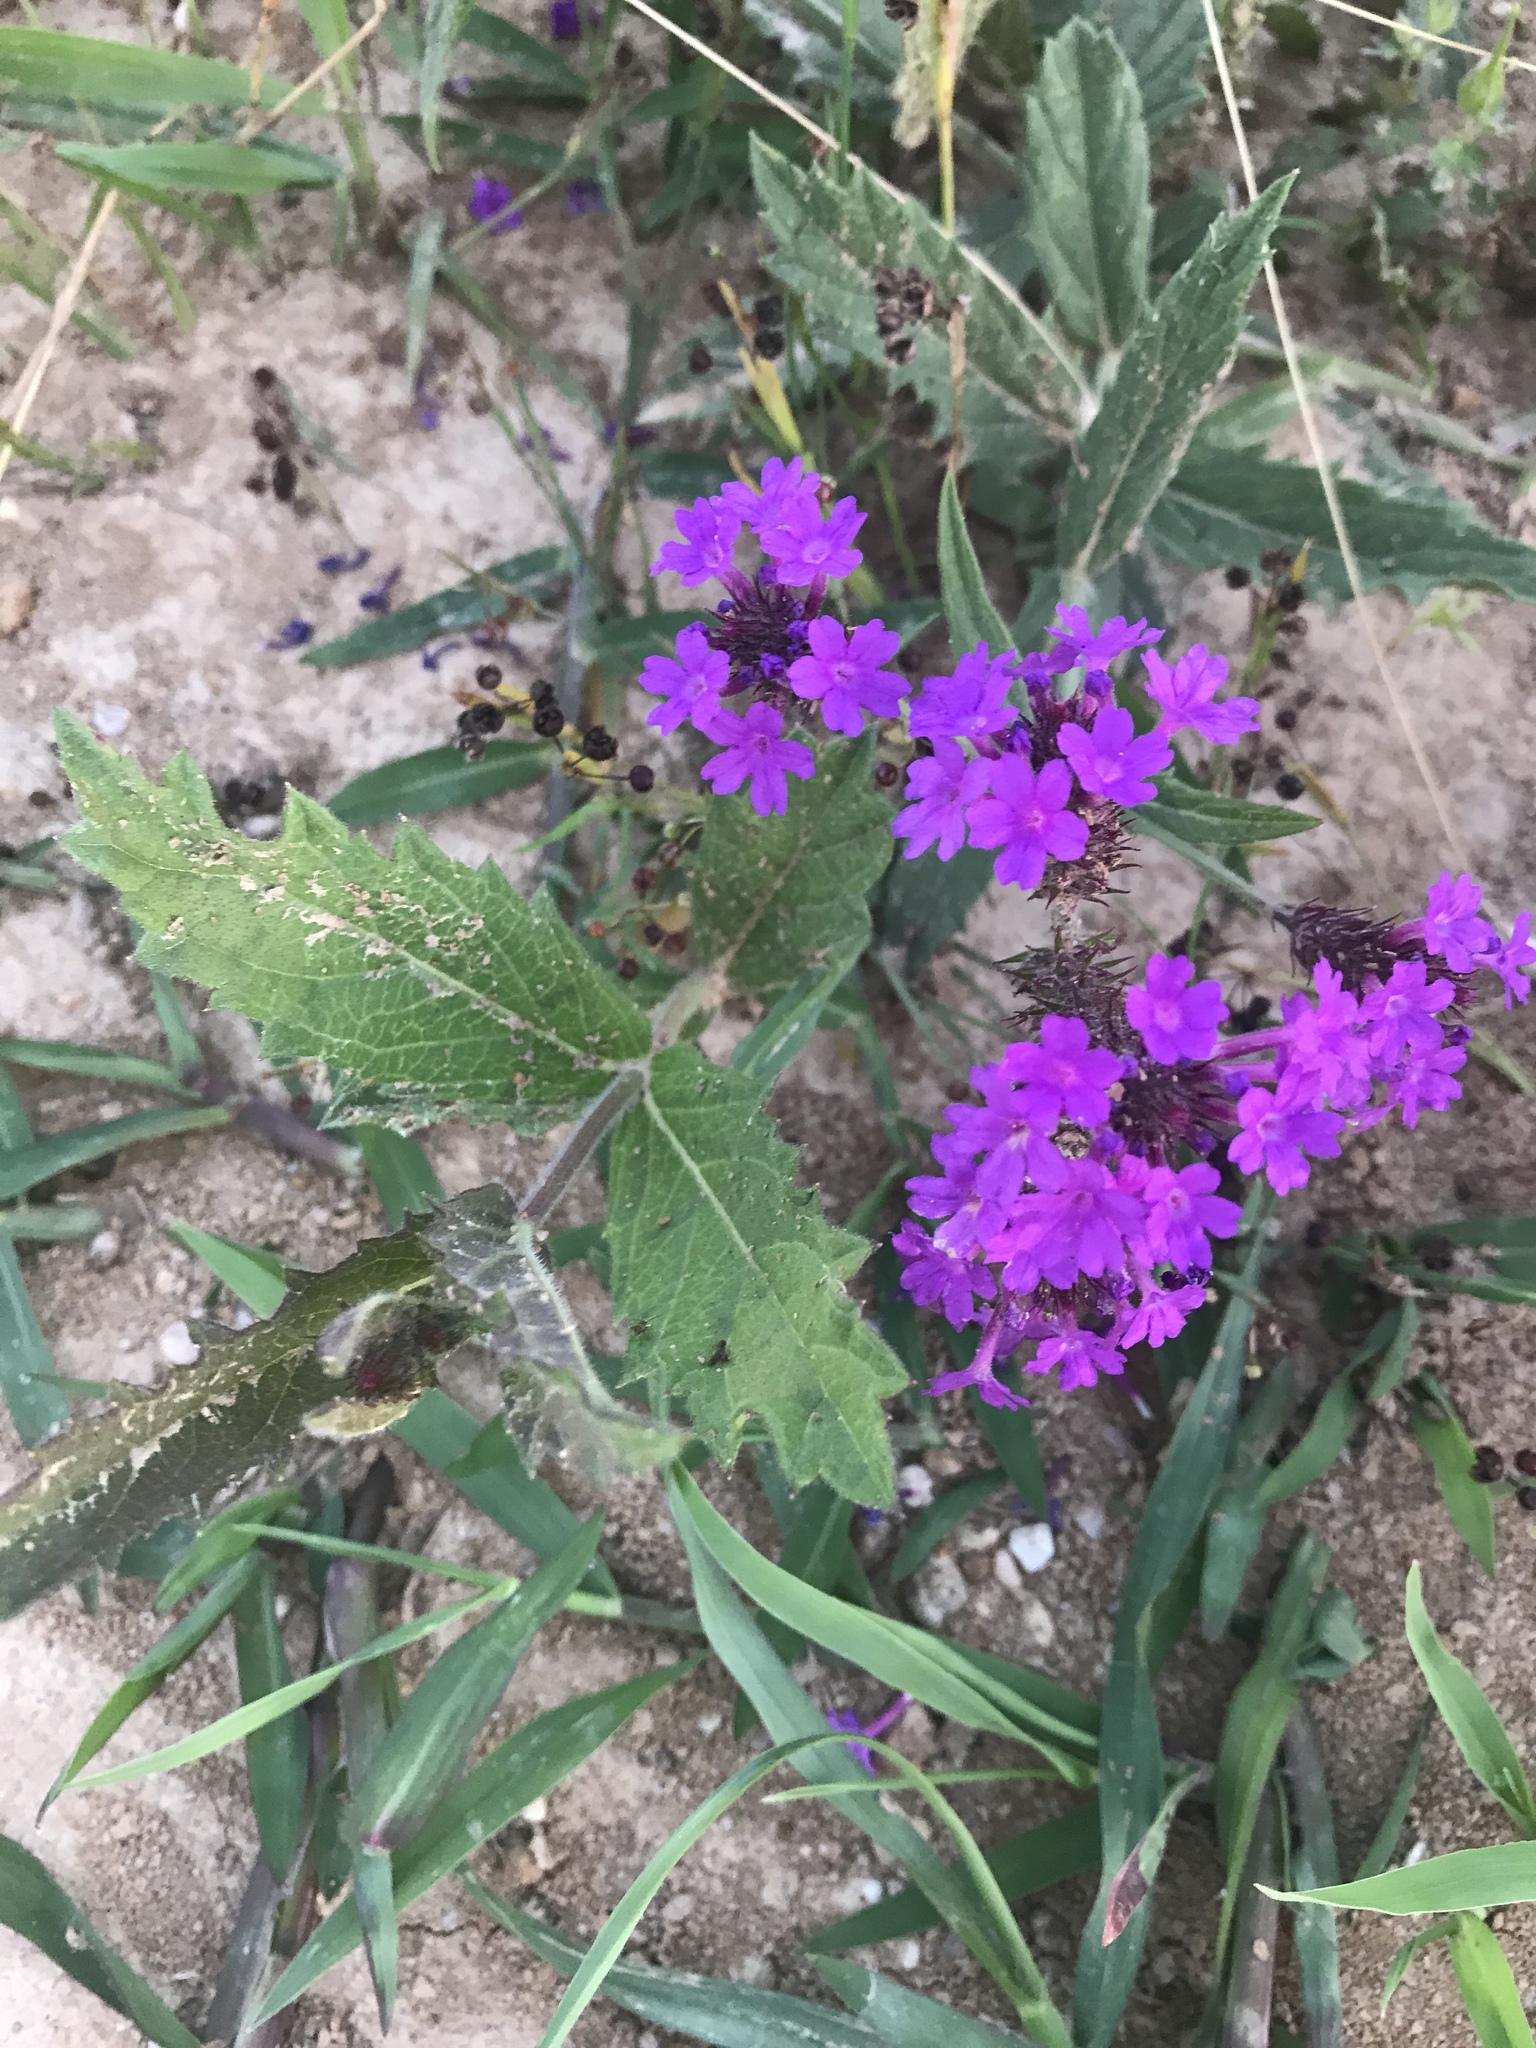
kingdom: Plantae
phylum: Tracheophyta
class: Magnoliopsida
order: Lamiales
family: Verbenaceae
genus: Verbena
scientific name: Verbena rigida
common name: Slender vervain
